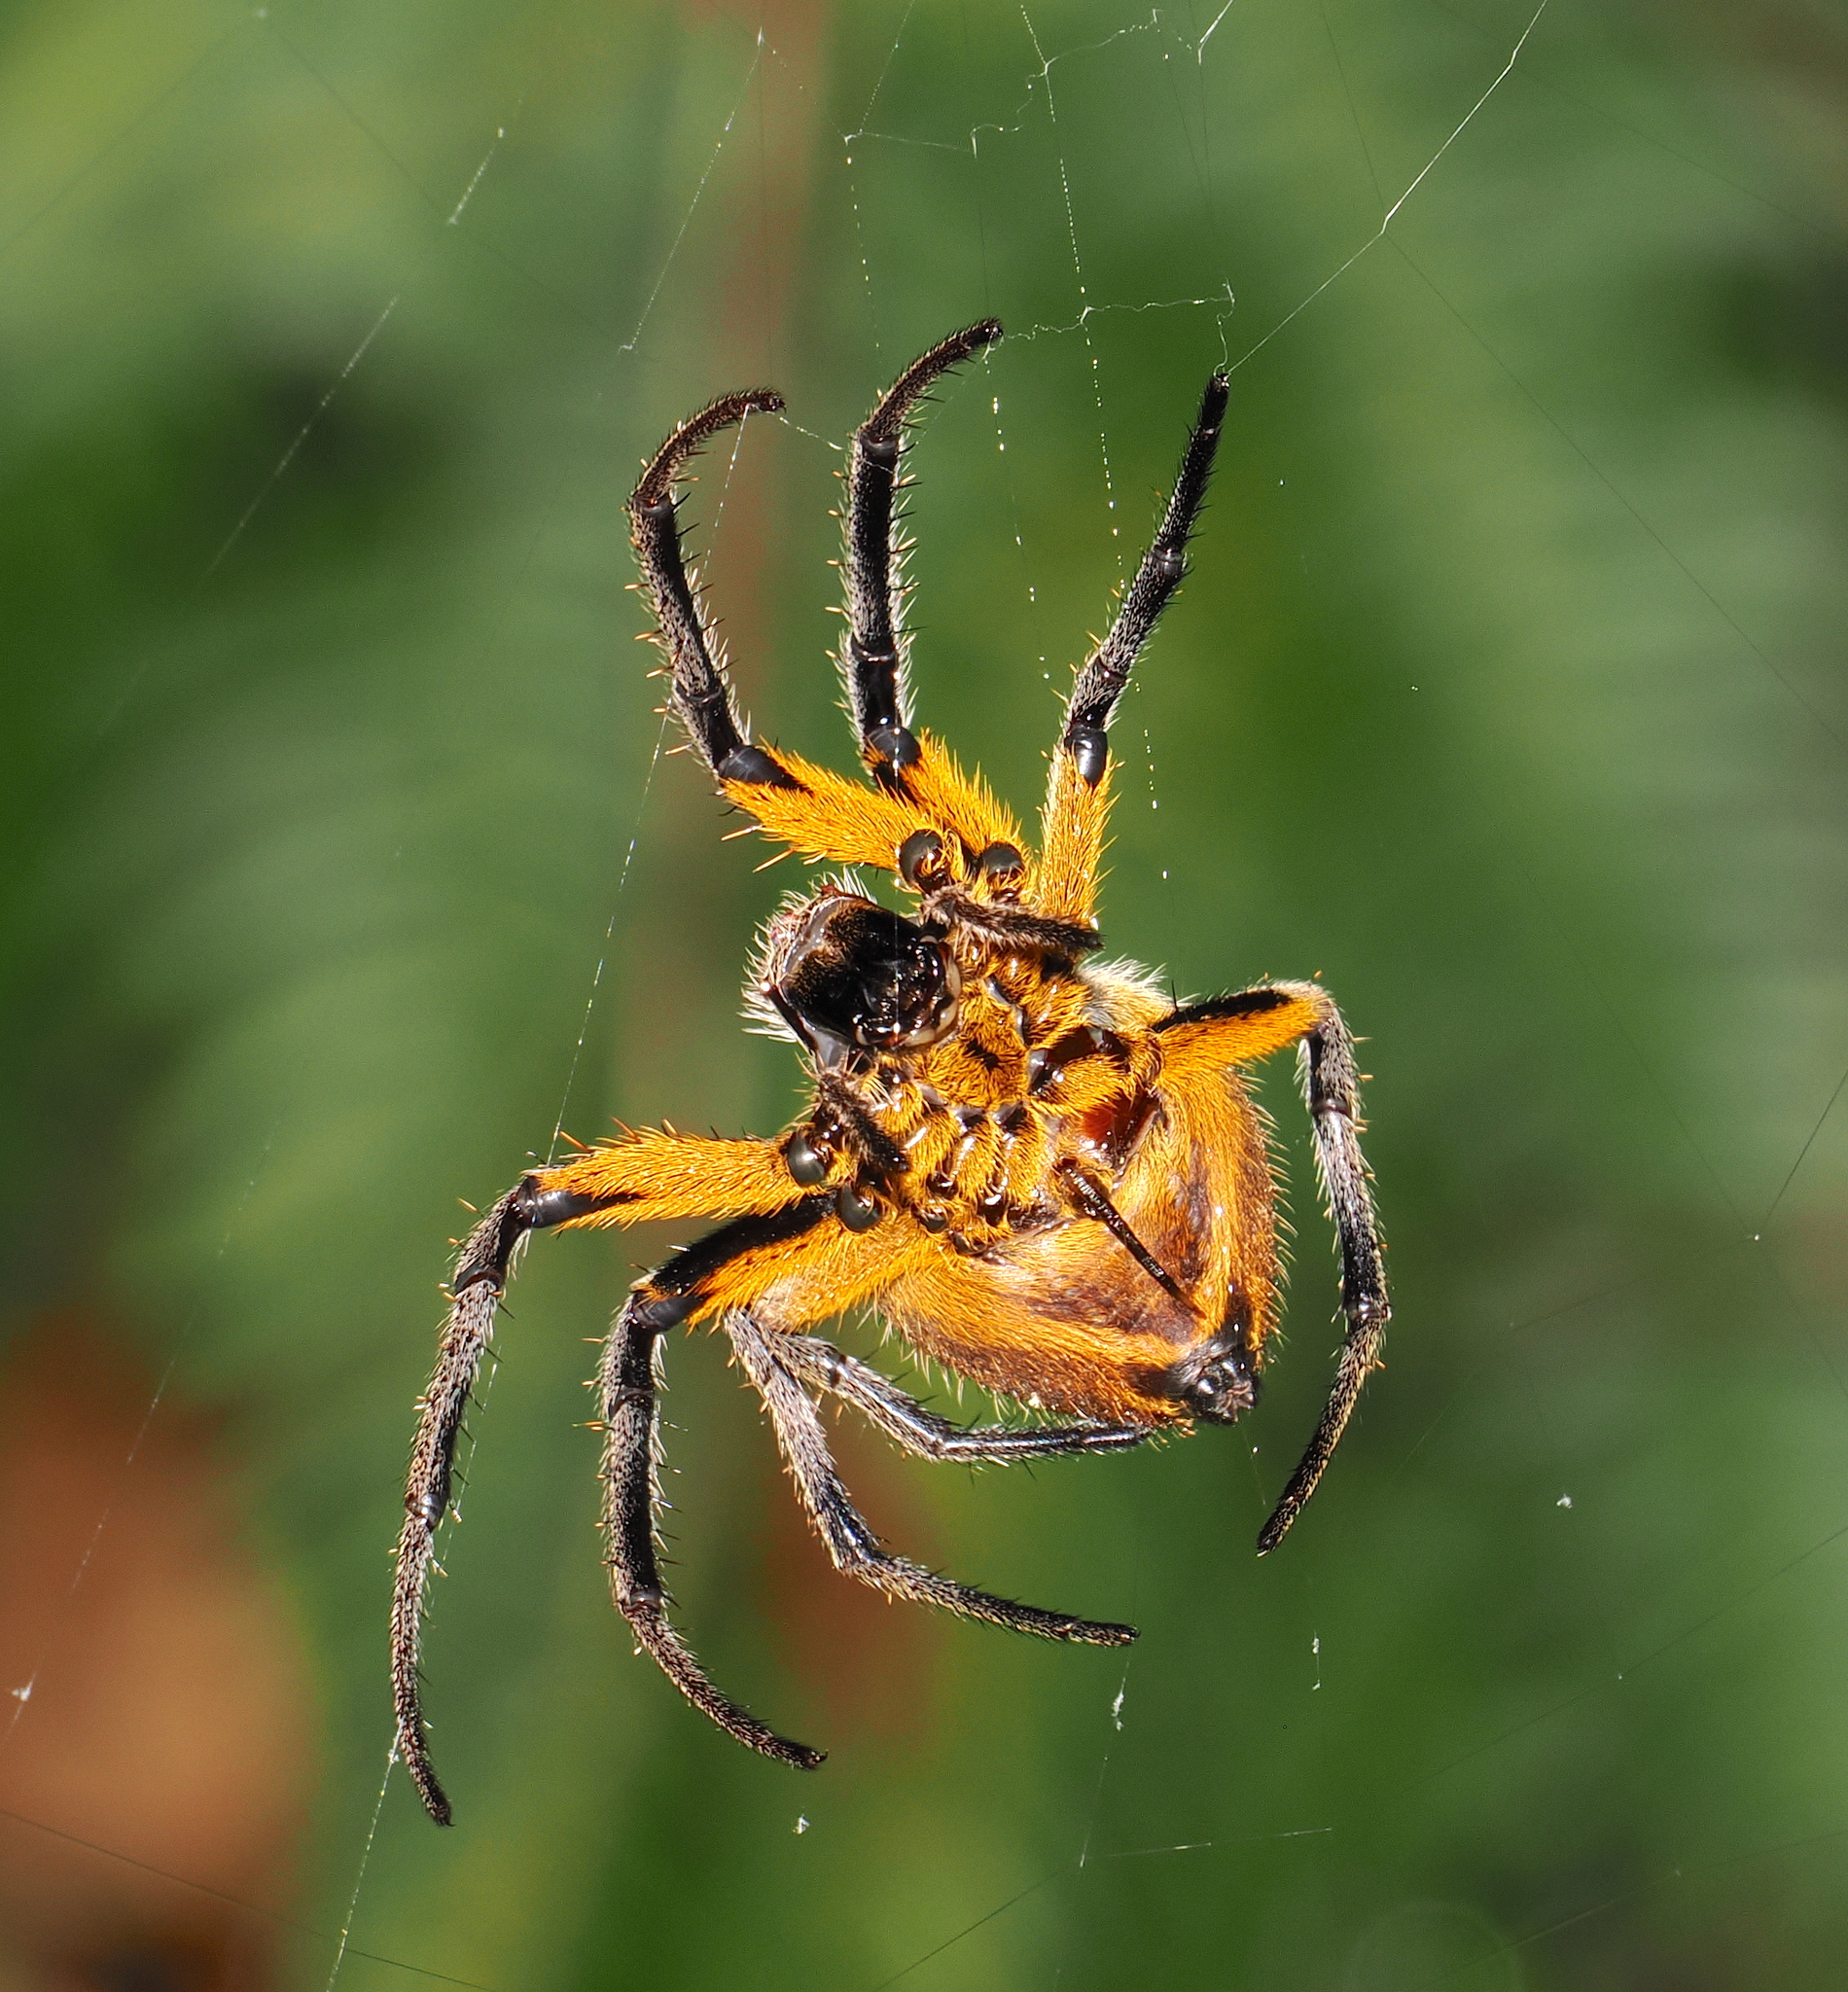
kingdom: Animalia
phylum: Arthropoda
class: Arachnida
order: Araneae
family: Araneidae
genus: Eriophora
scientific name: Eriophora fuliginea
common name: Orb weavers
